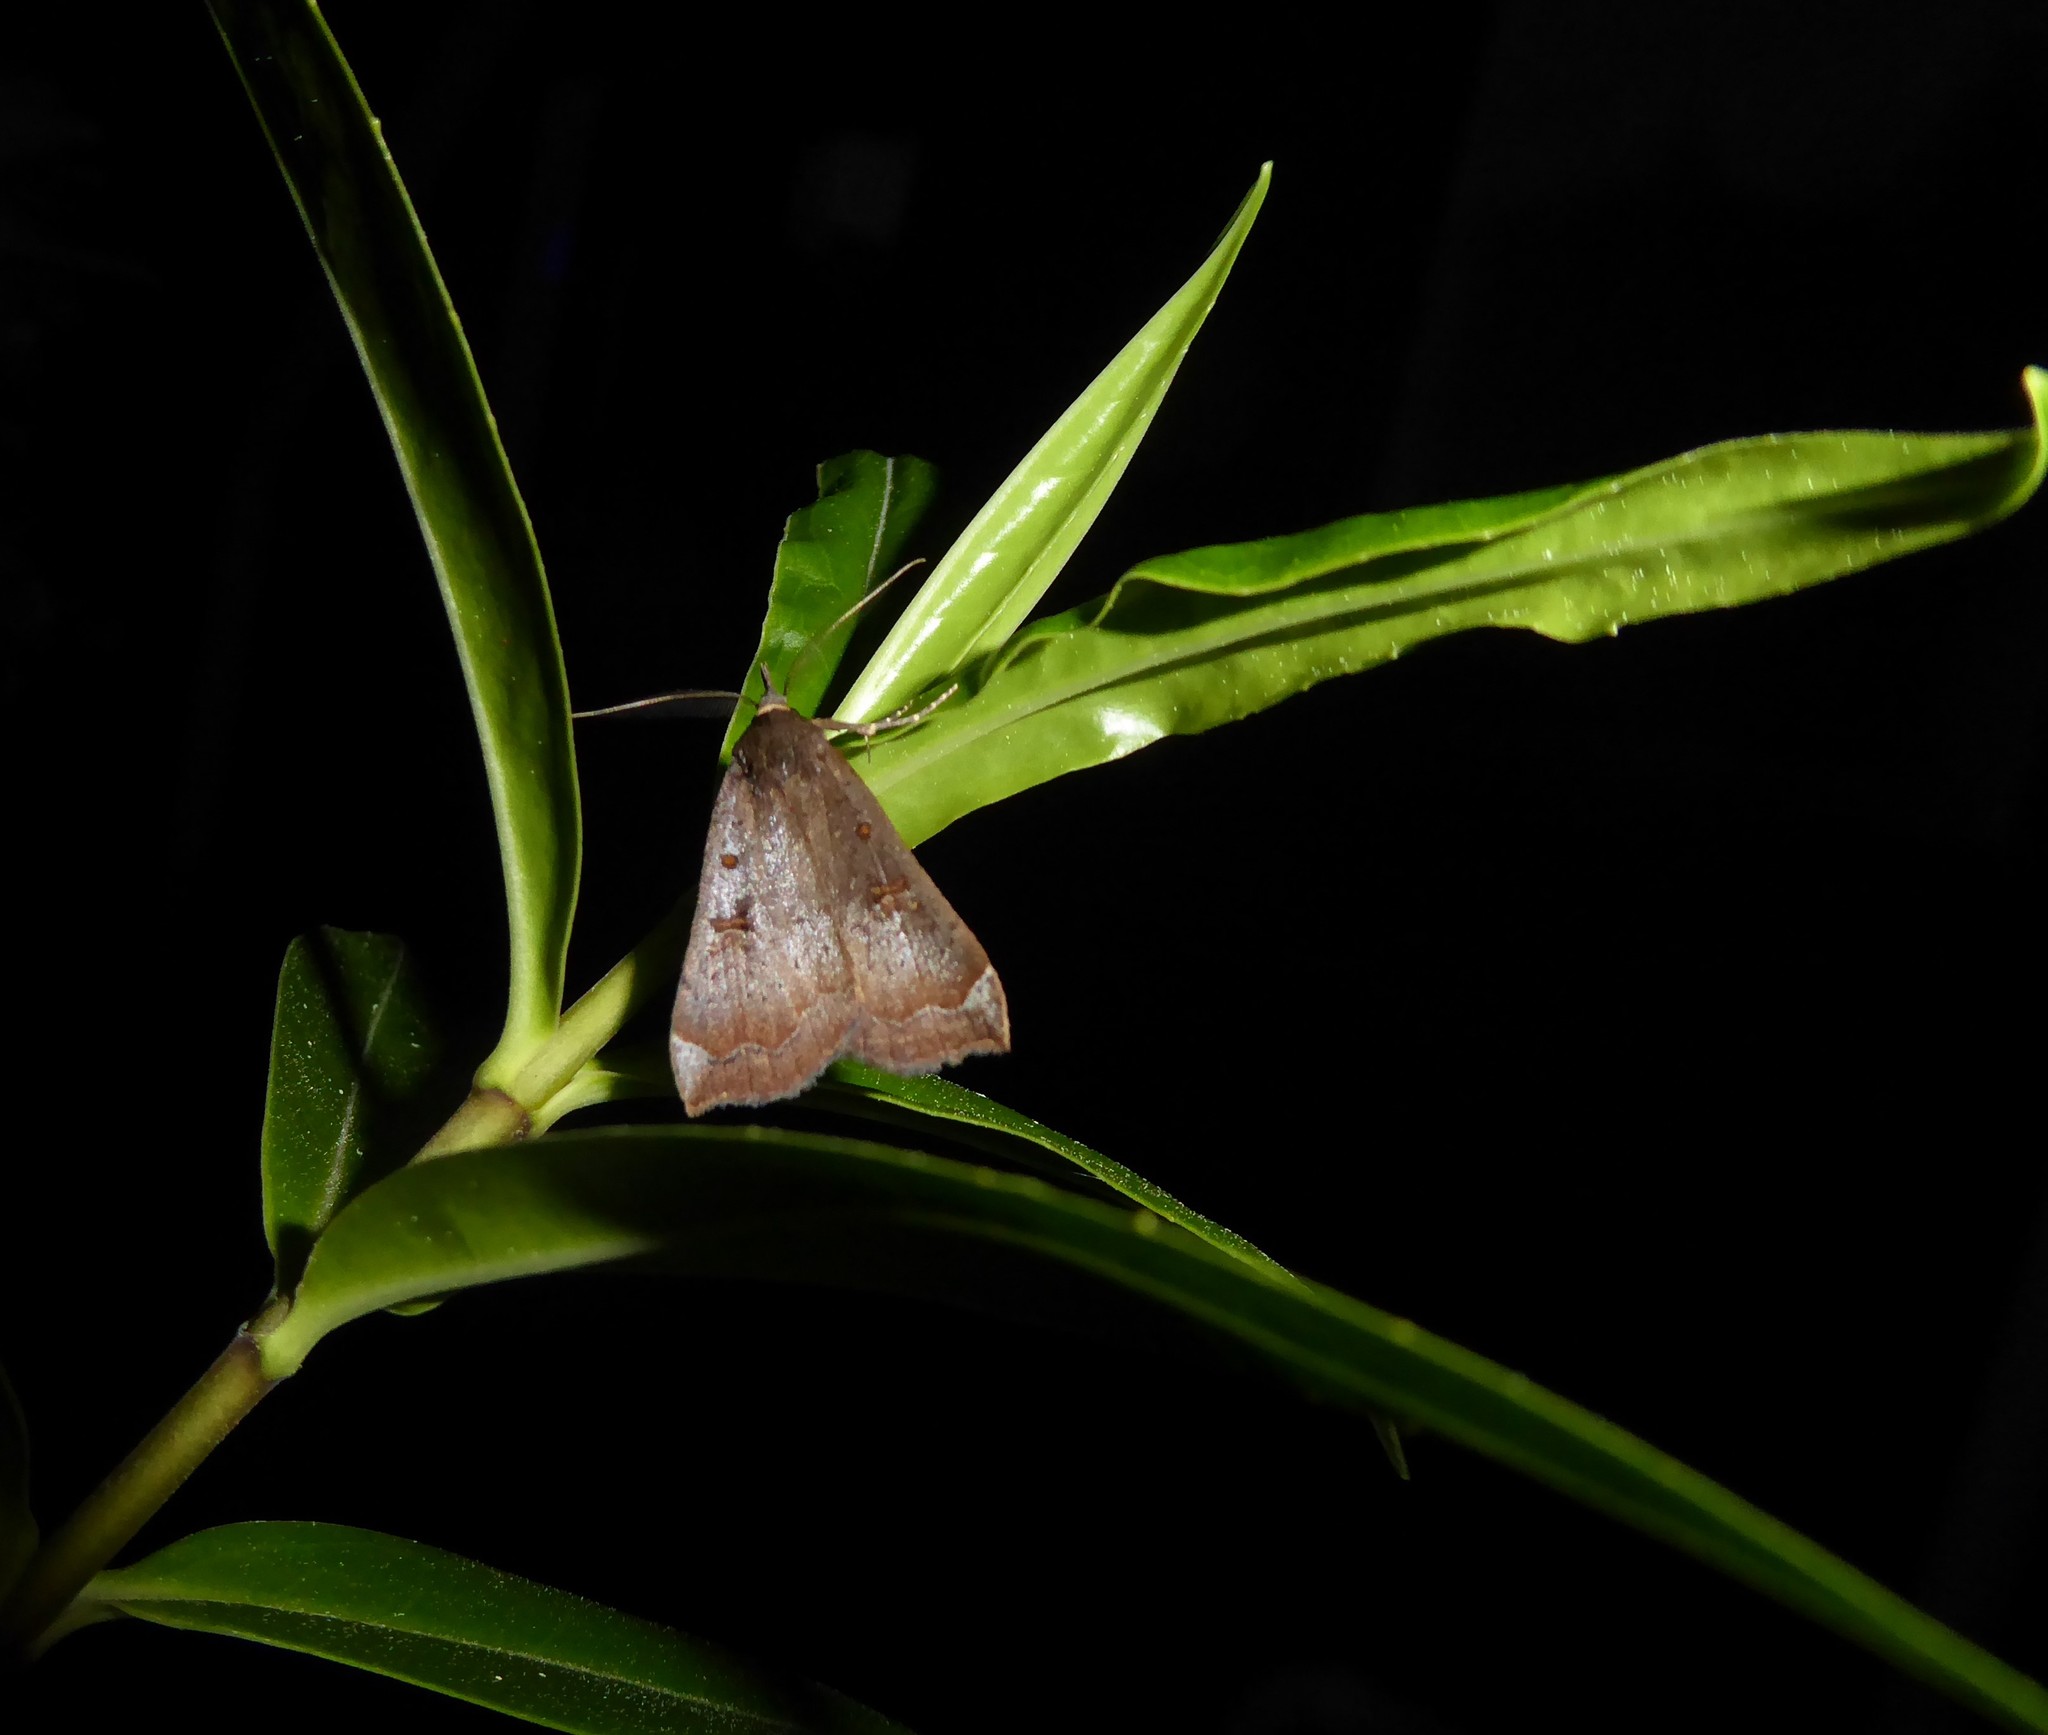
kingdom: Animalia
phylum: Arthropoda
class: Insecta
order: Lepidoptera
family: Erebidae
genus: Rhapsa
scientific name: Rhapsa scotosialis
